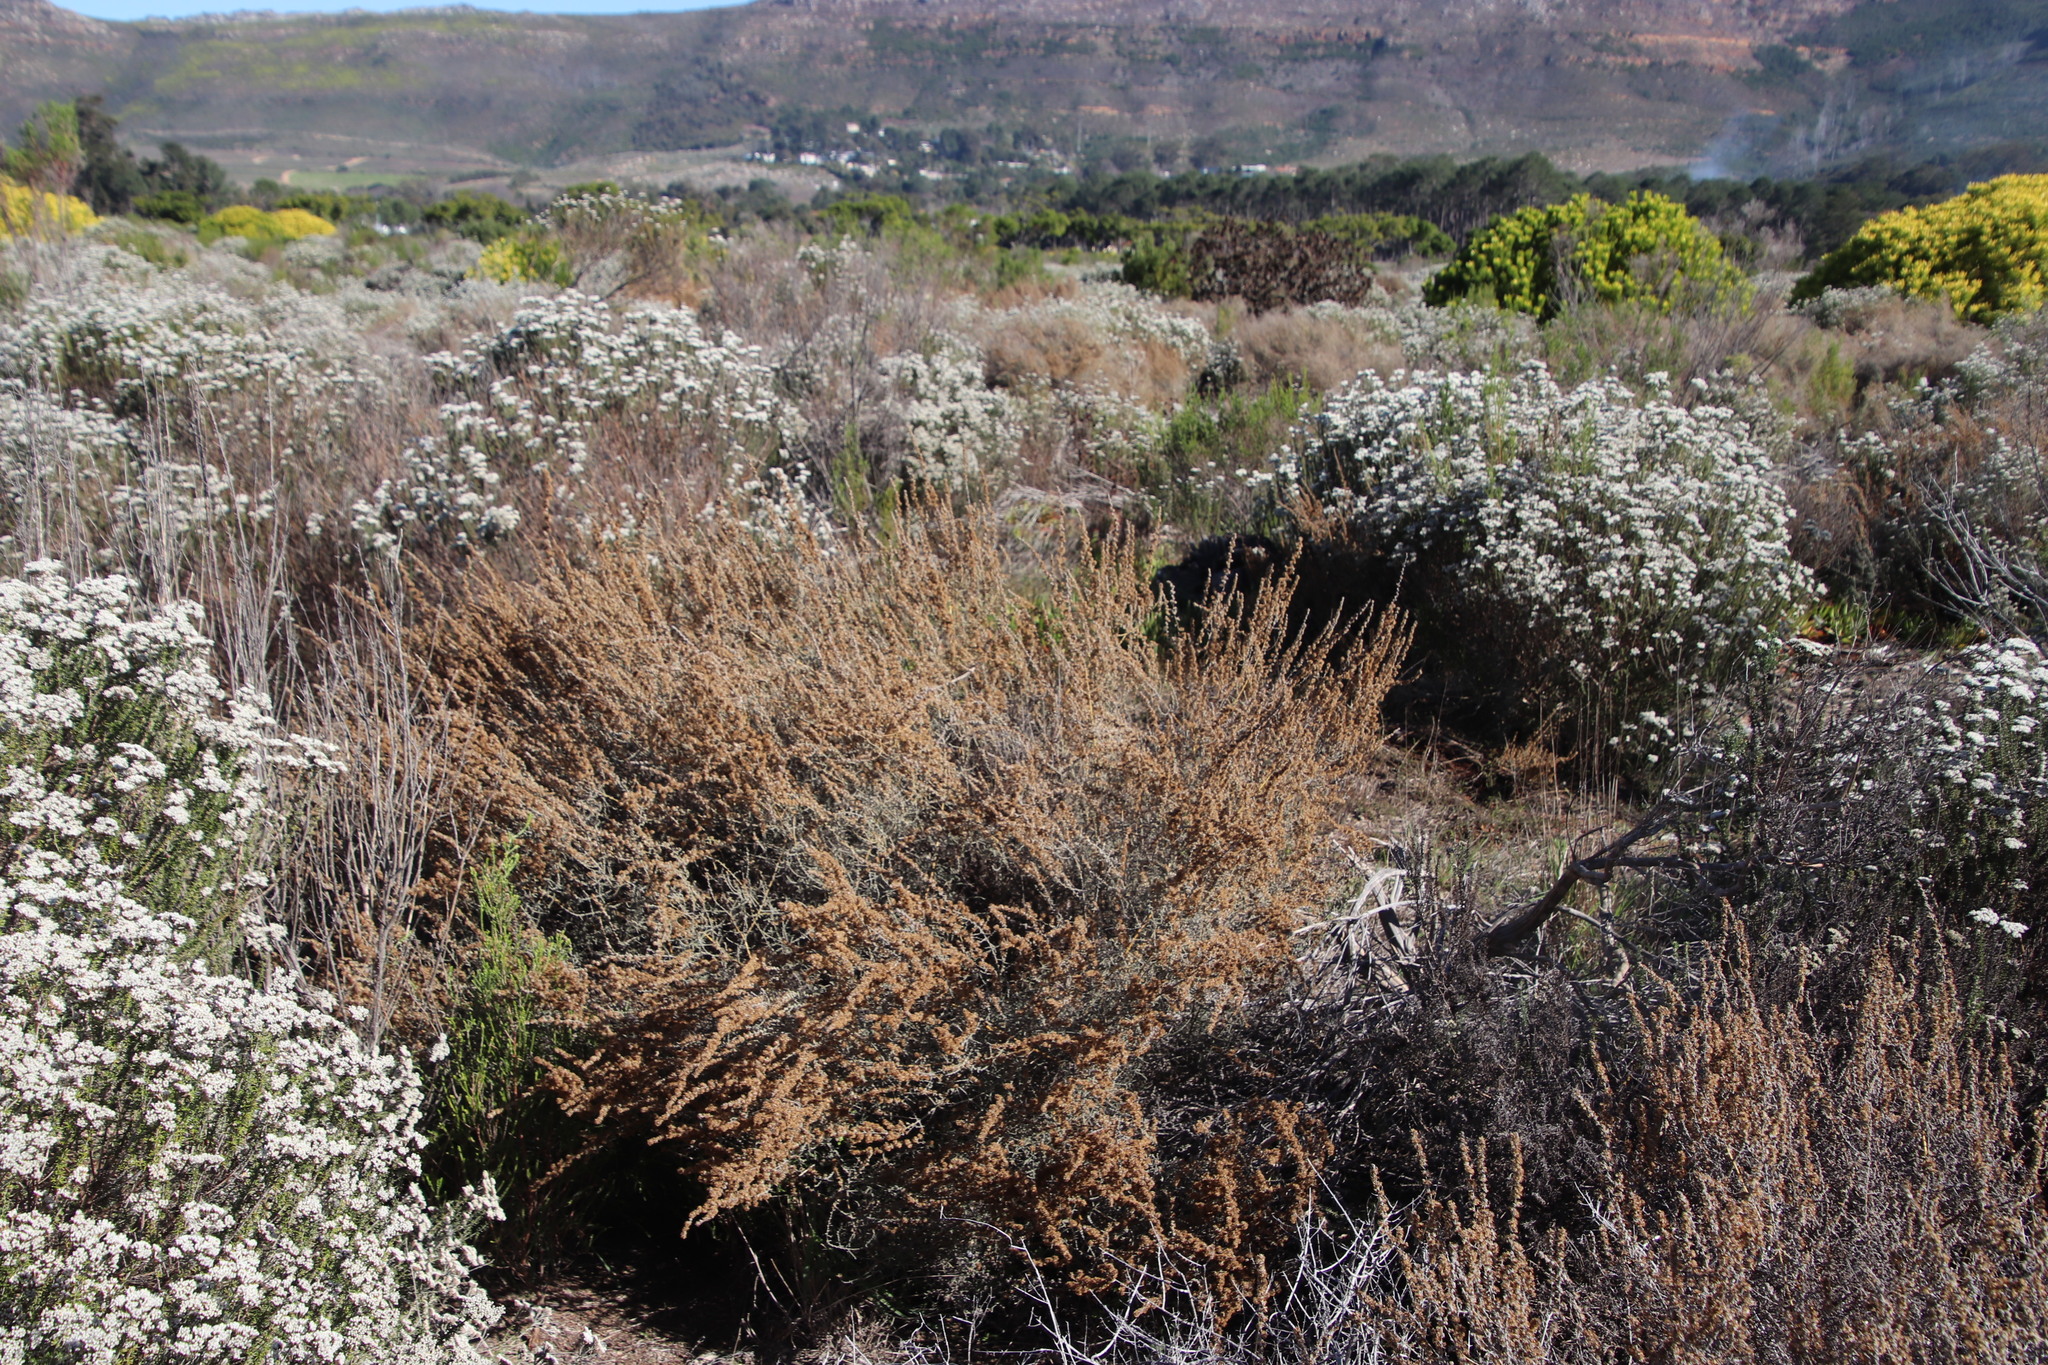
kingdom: Plantae
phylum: Tracheophyta
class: Magnoliopsida
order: Asterales
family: Asteraceae
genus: Seriphium
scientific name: Seriphium cinereum
